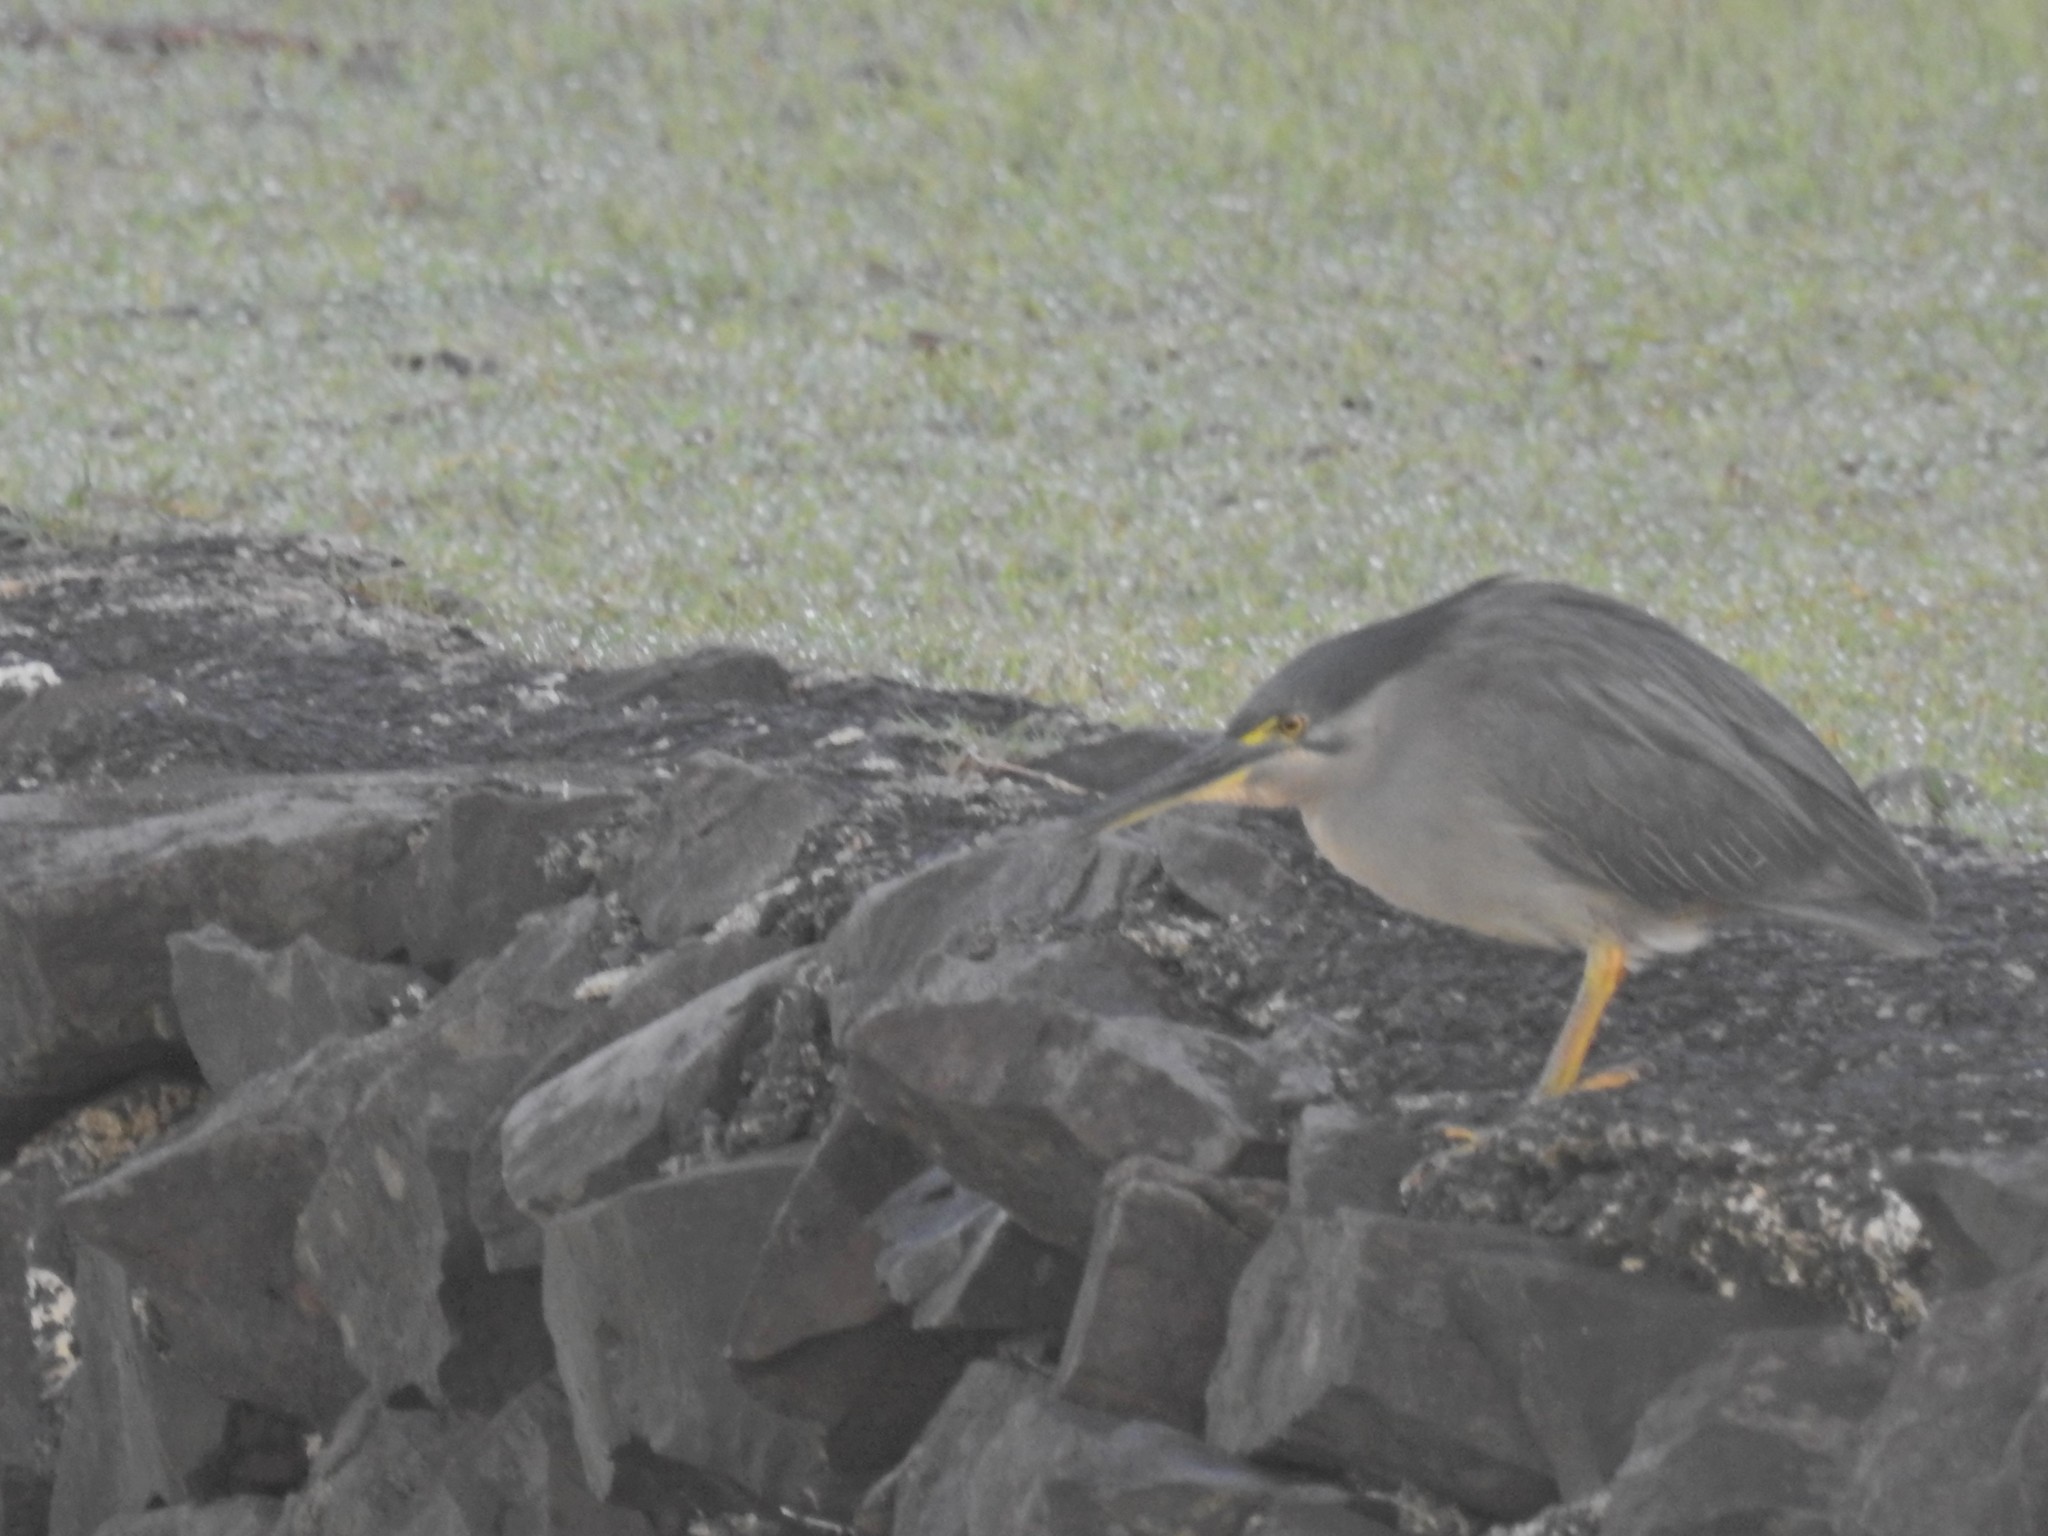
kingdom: Animalia
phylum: Chordata
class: Aves
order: Pelecaniformes
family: Ardeidae
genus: Butorides
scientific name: Butorides striata
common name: Striated heron
